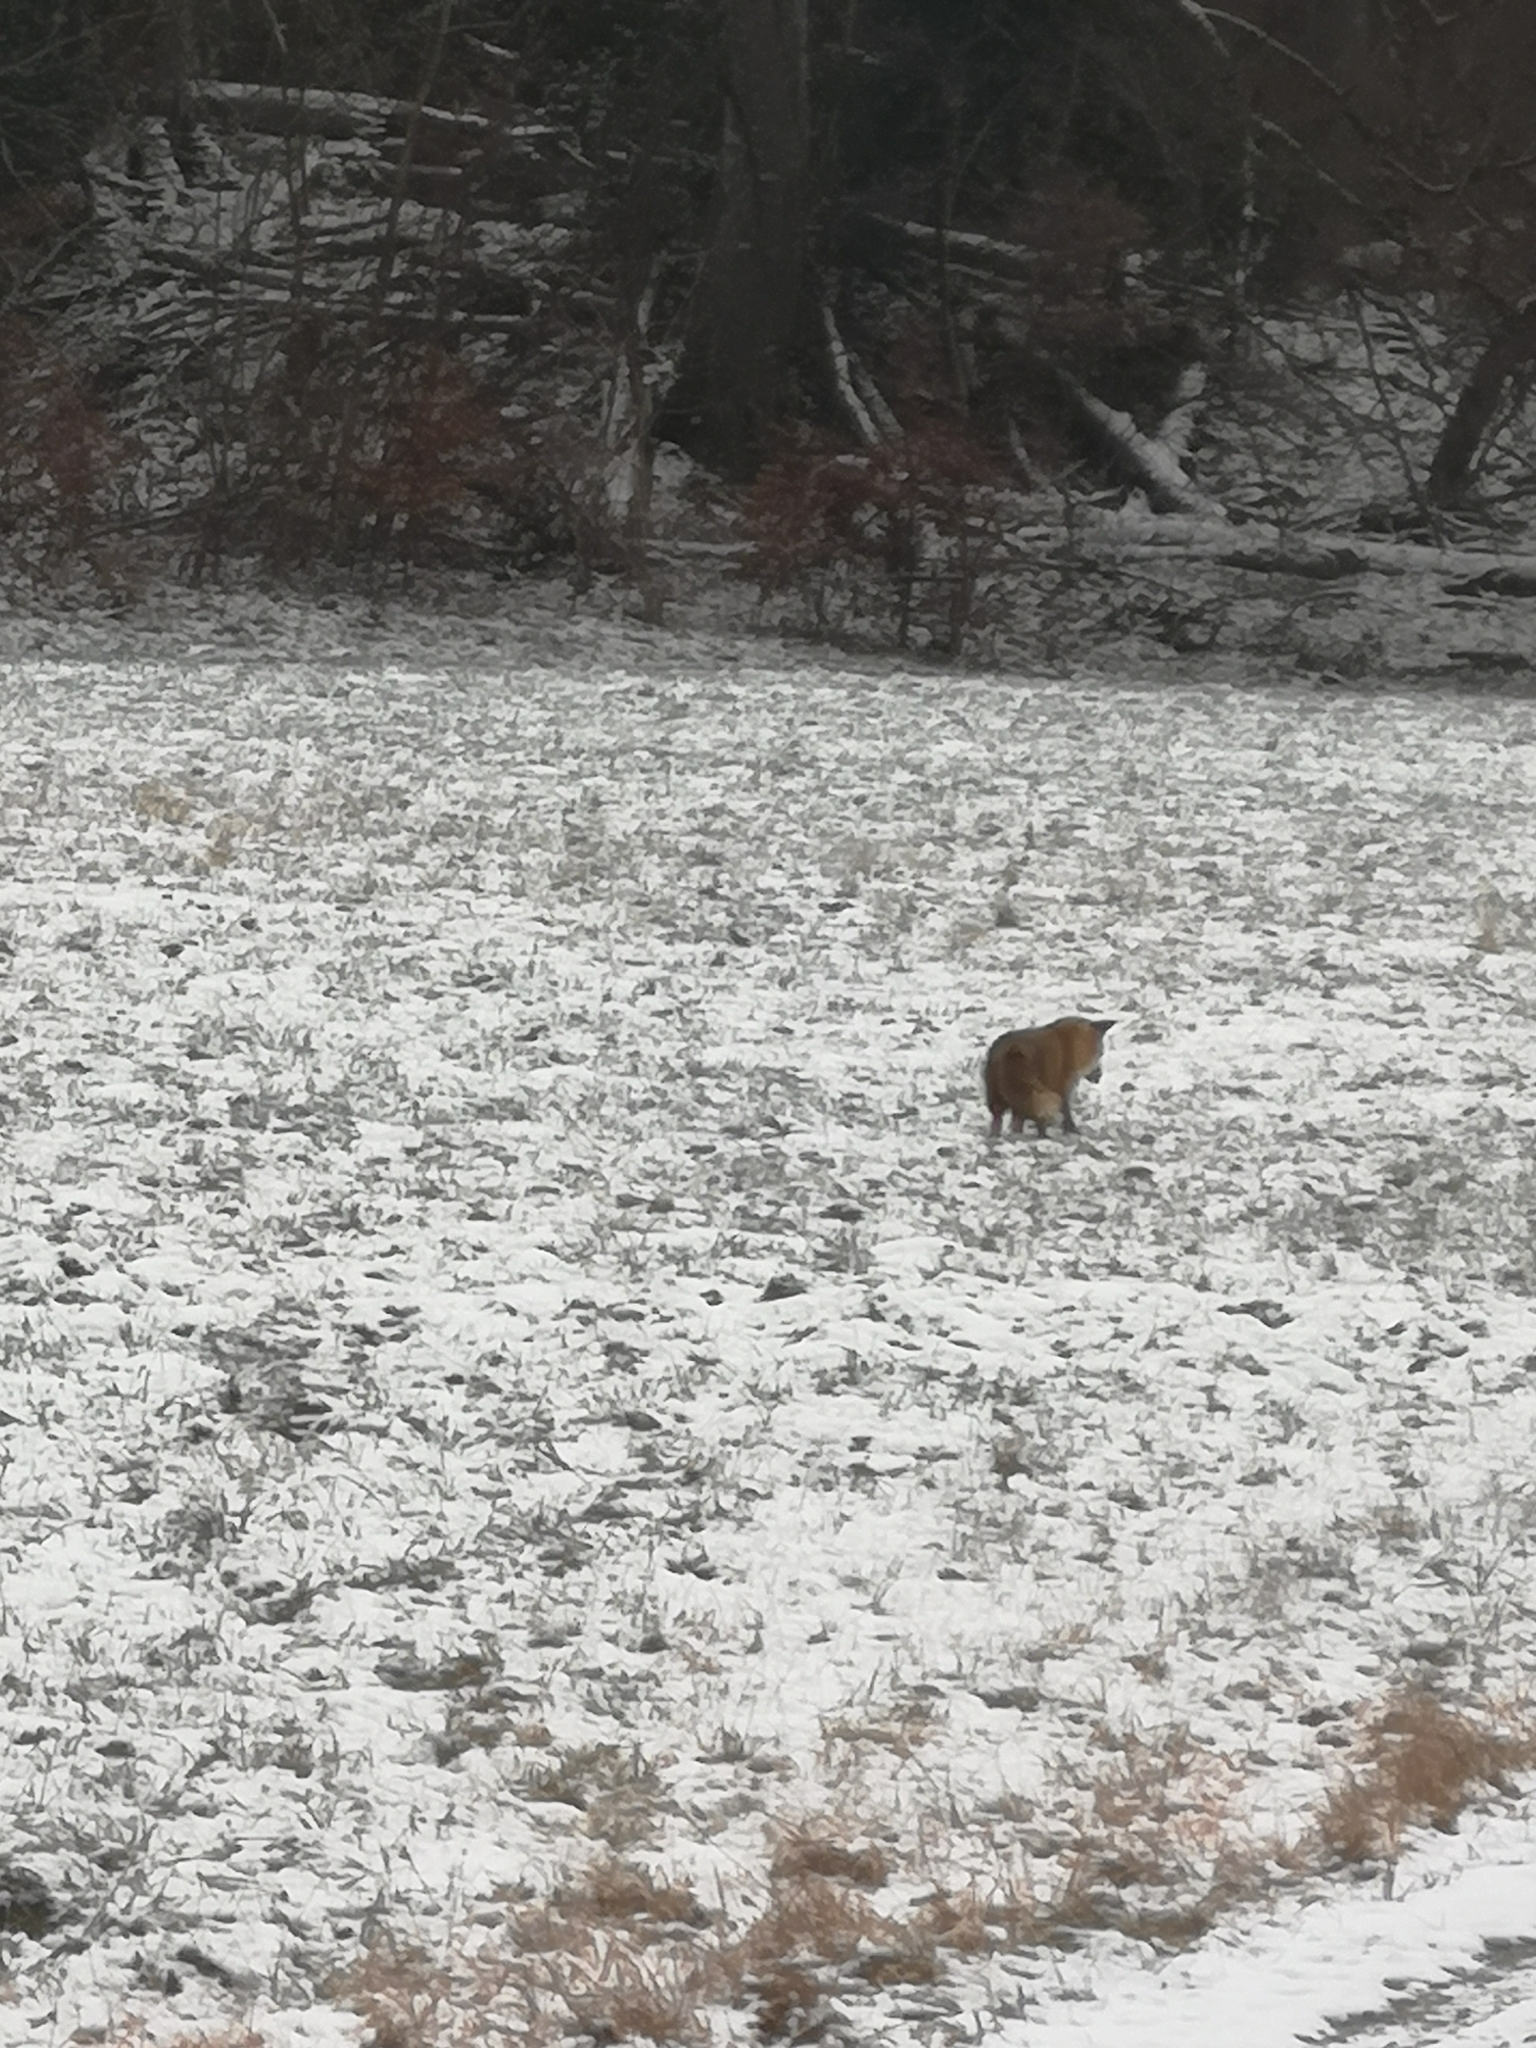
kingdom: Animalia
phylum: Chordata
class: Mammalia
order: Carnivora
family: Canidae
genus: Vulpes
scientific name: Vulpes vulpes
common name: Red fox
